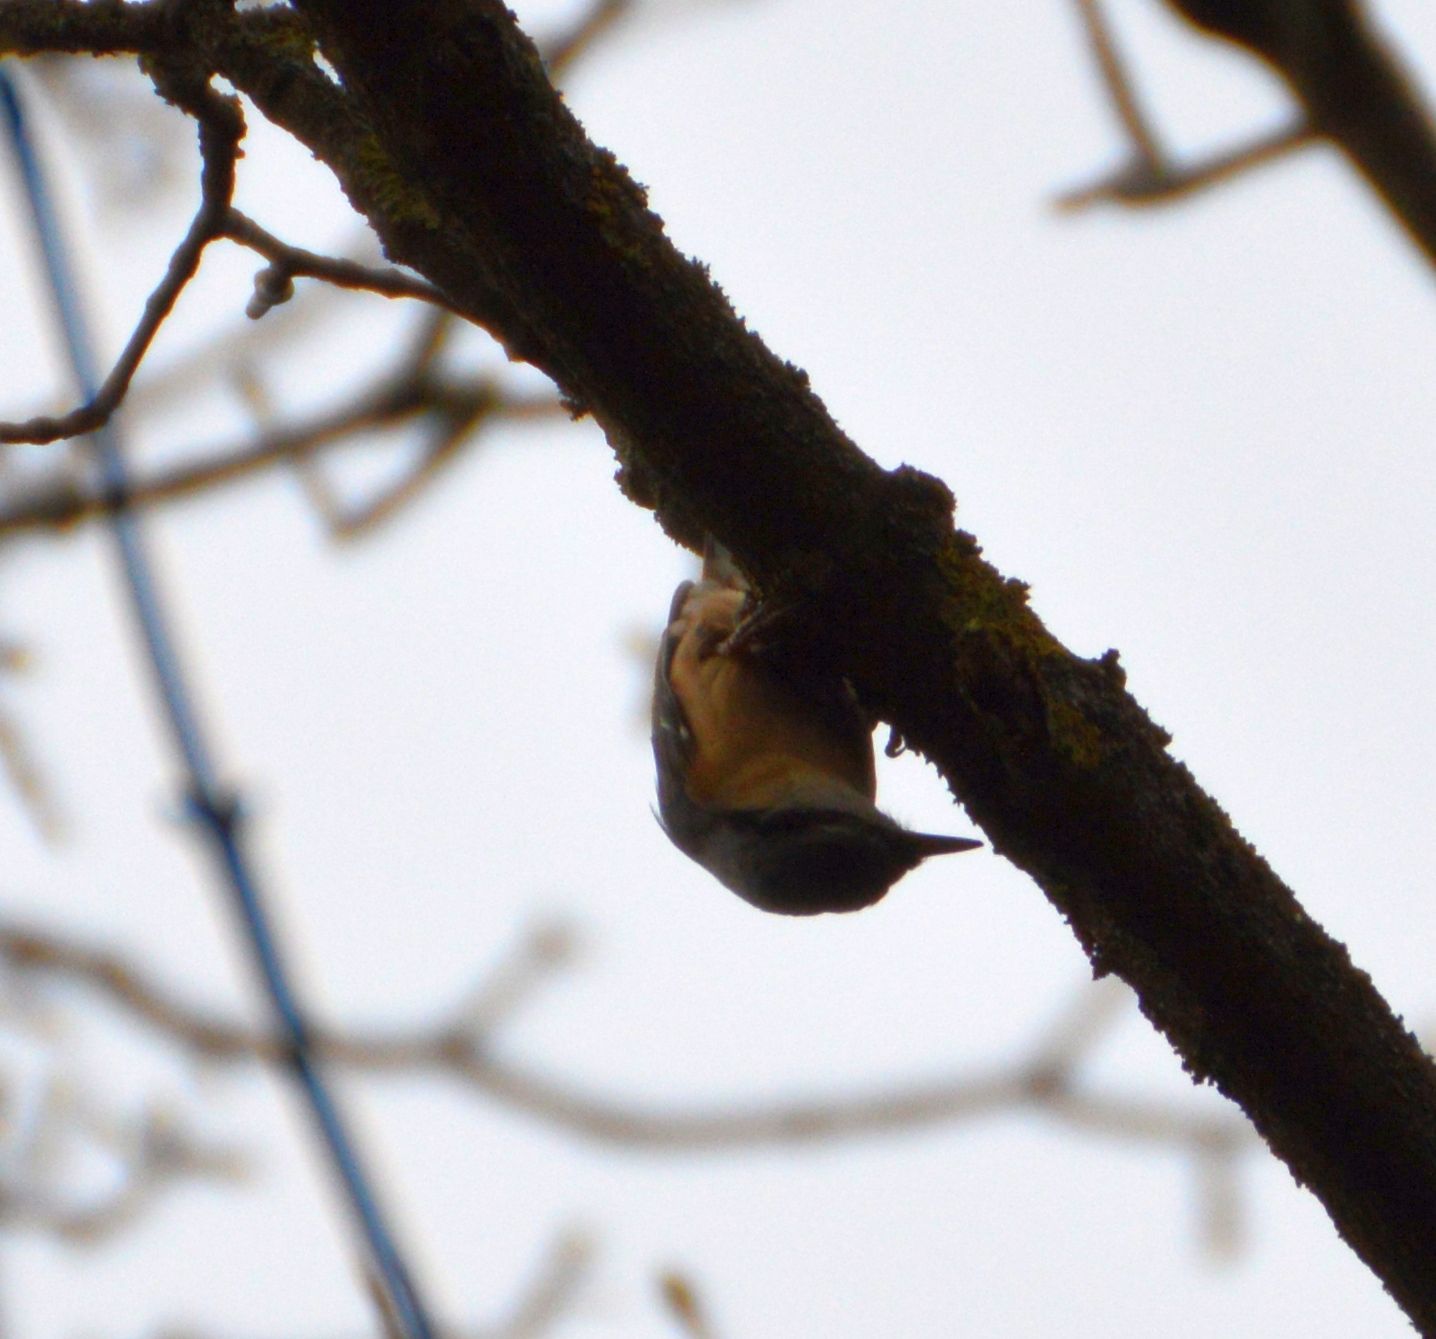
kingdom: Animalia
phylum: Chordata
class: Aves
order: Passeriformes
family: Sittidae
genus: Sitta
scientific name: Sitta europaea
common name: Eurasian nuthatch
